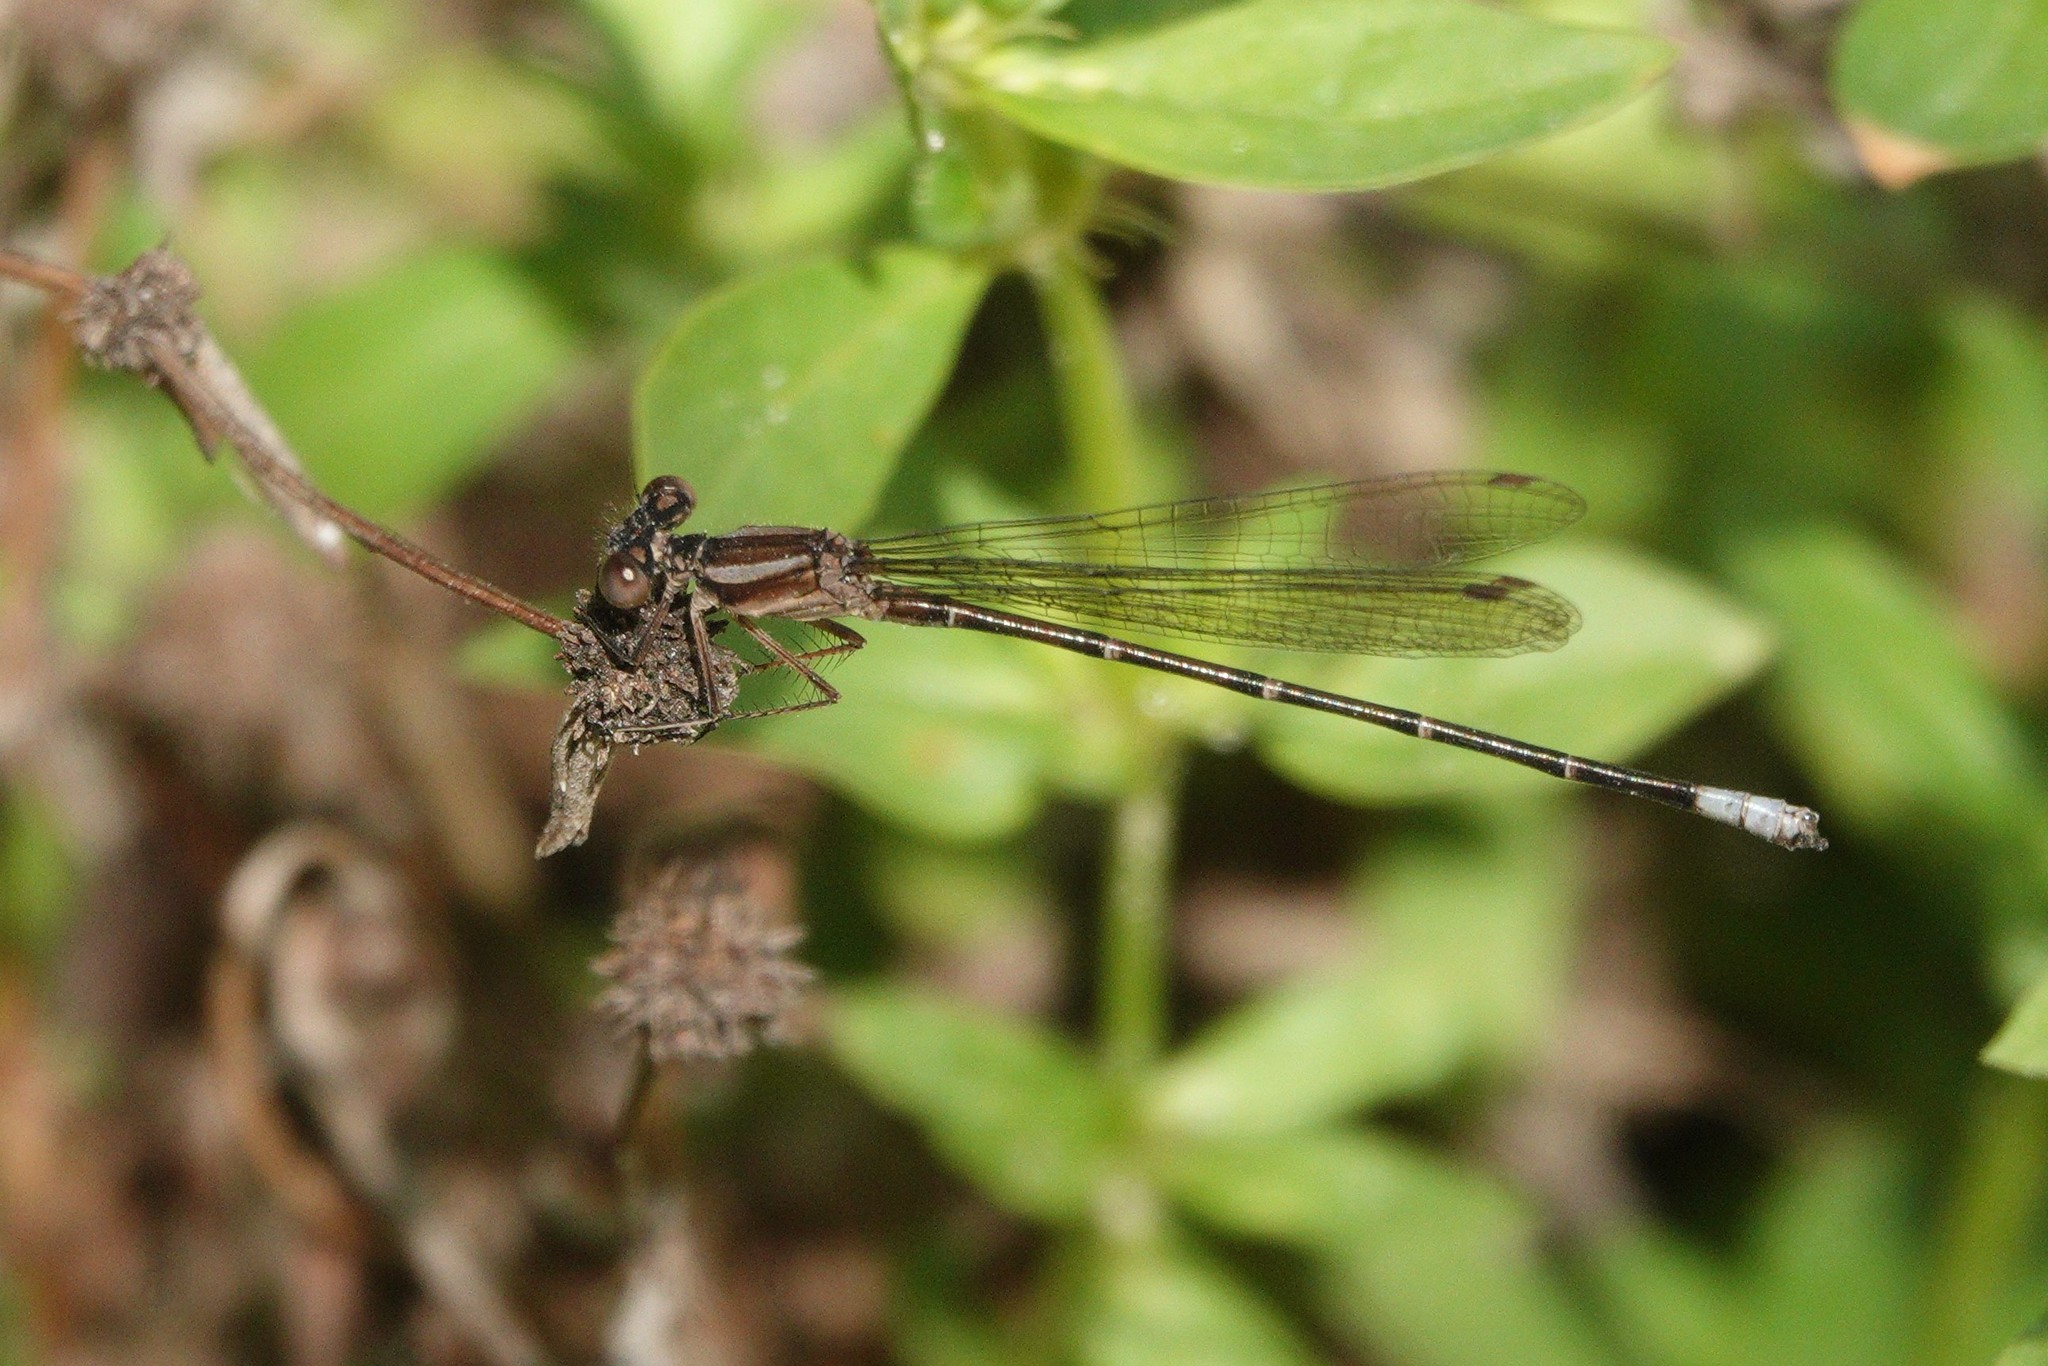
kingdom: Animalia
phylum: Arthropoda
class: Insecta
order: Odonata
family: Coenagrionidae
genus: Argia
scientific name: Argia sedula
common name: Blue-ringed dancer
